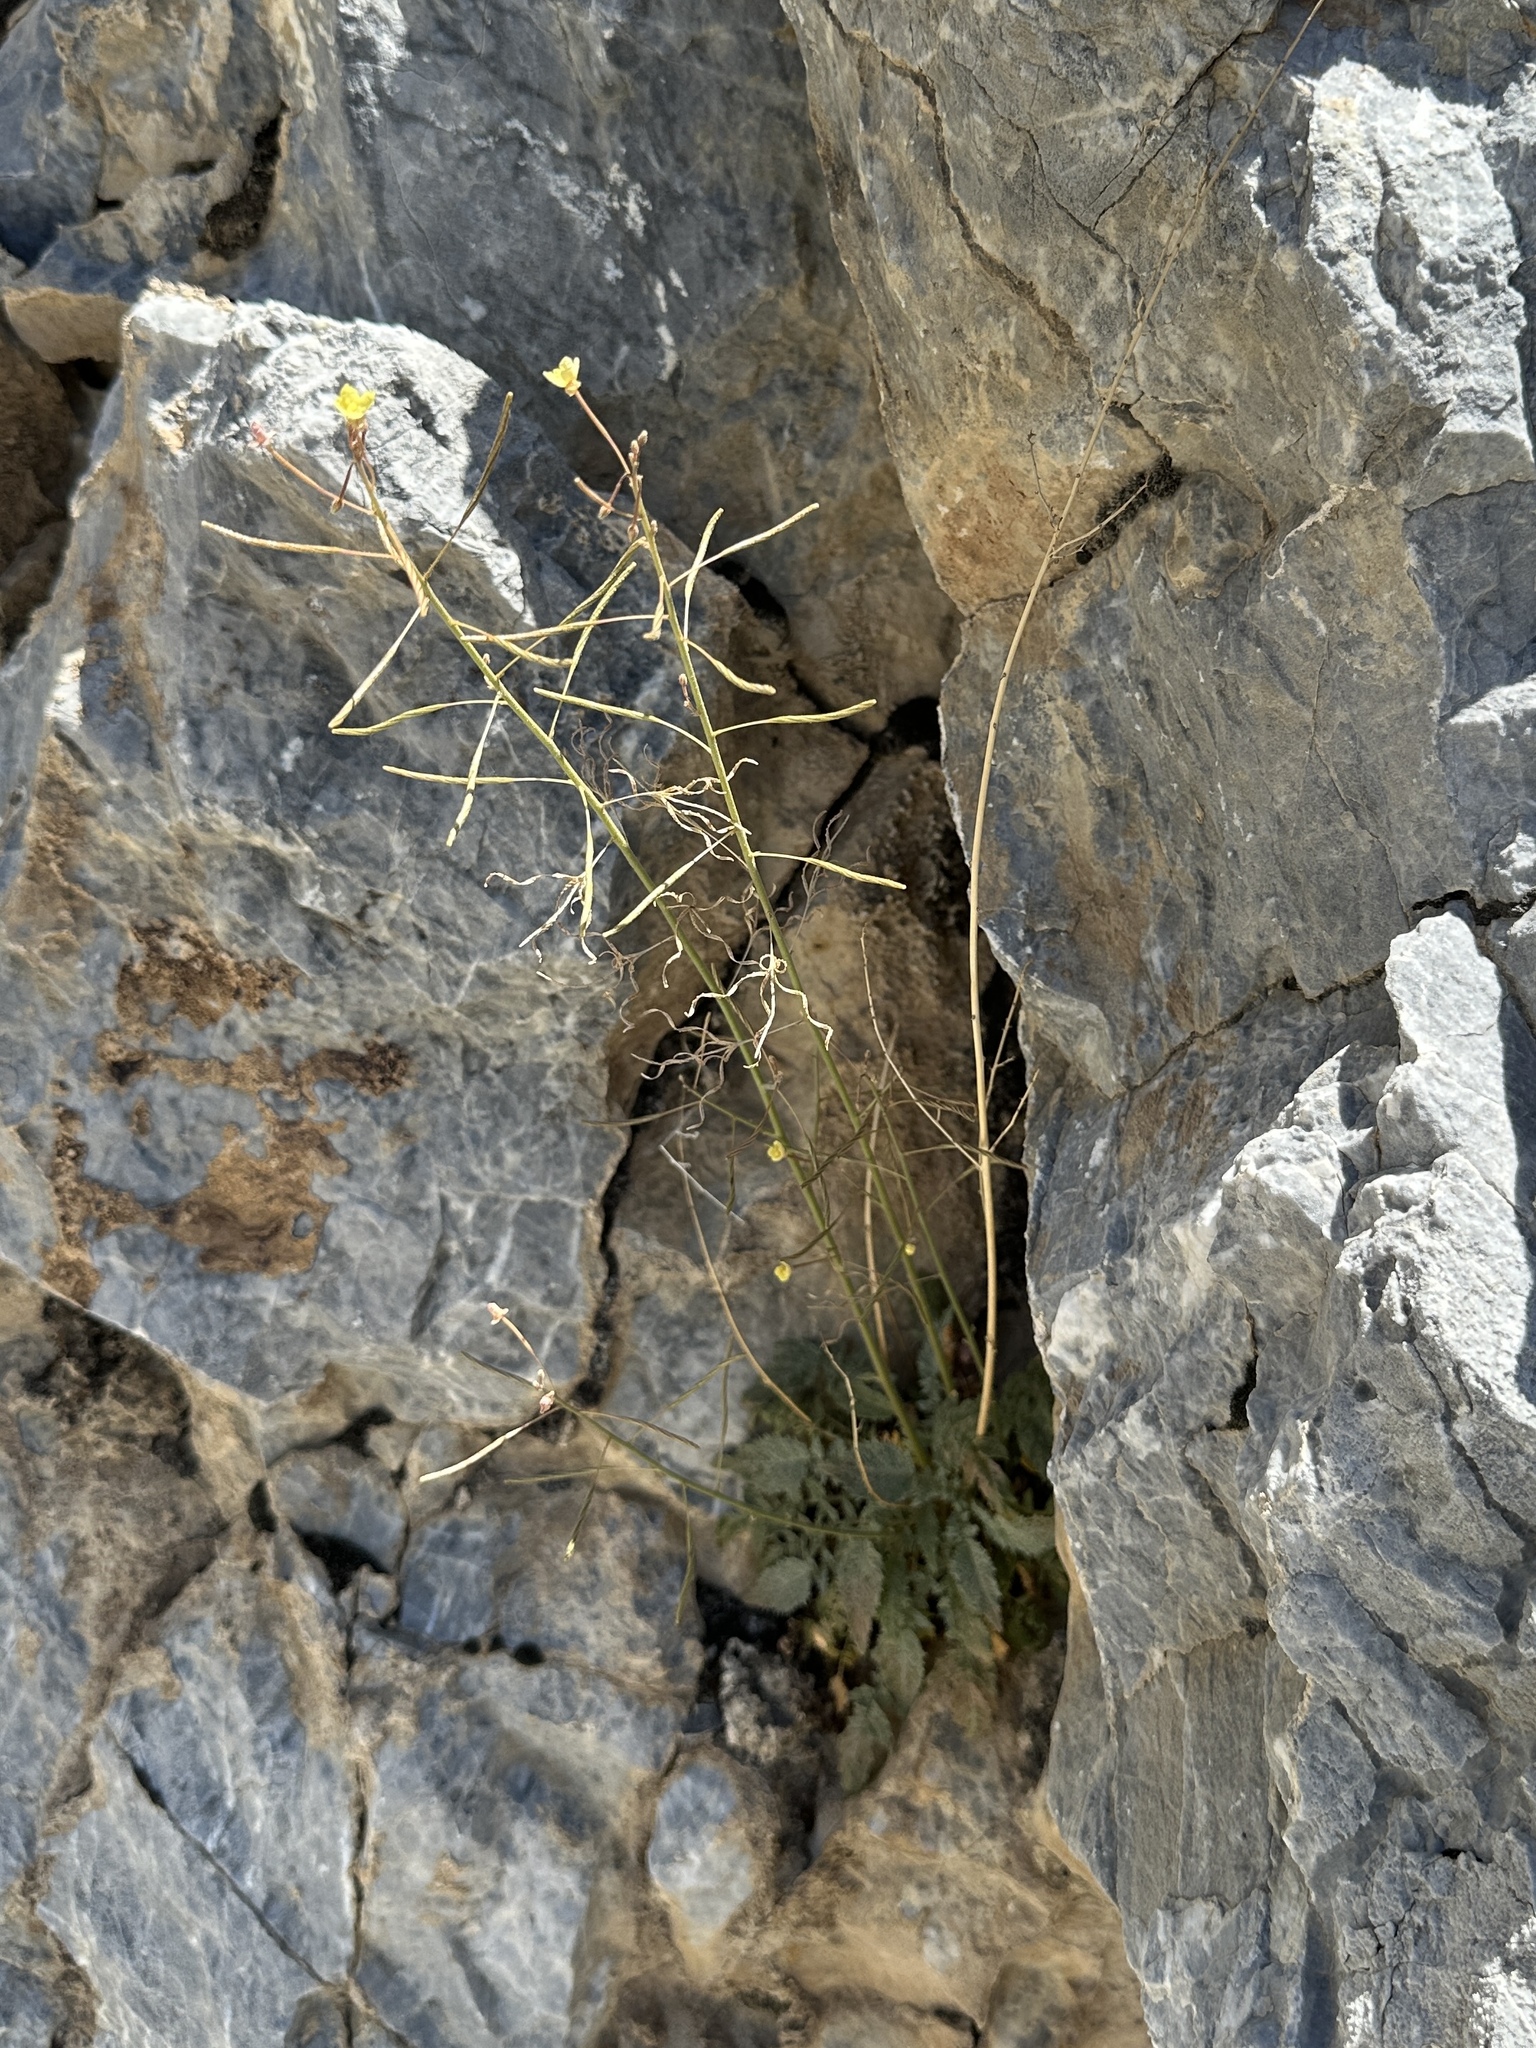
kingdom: Plantae
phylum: Tracheophyta
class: Magnoliopsida
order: Myrtales
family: Onagraceae
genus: Chylismia
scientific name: Chylismia walkeri
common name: Walker's suncup
